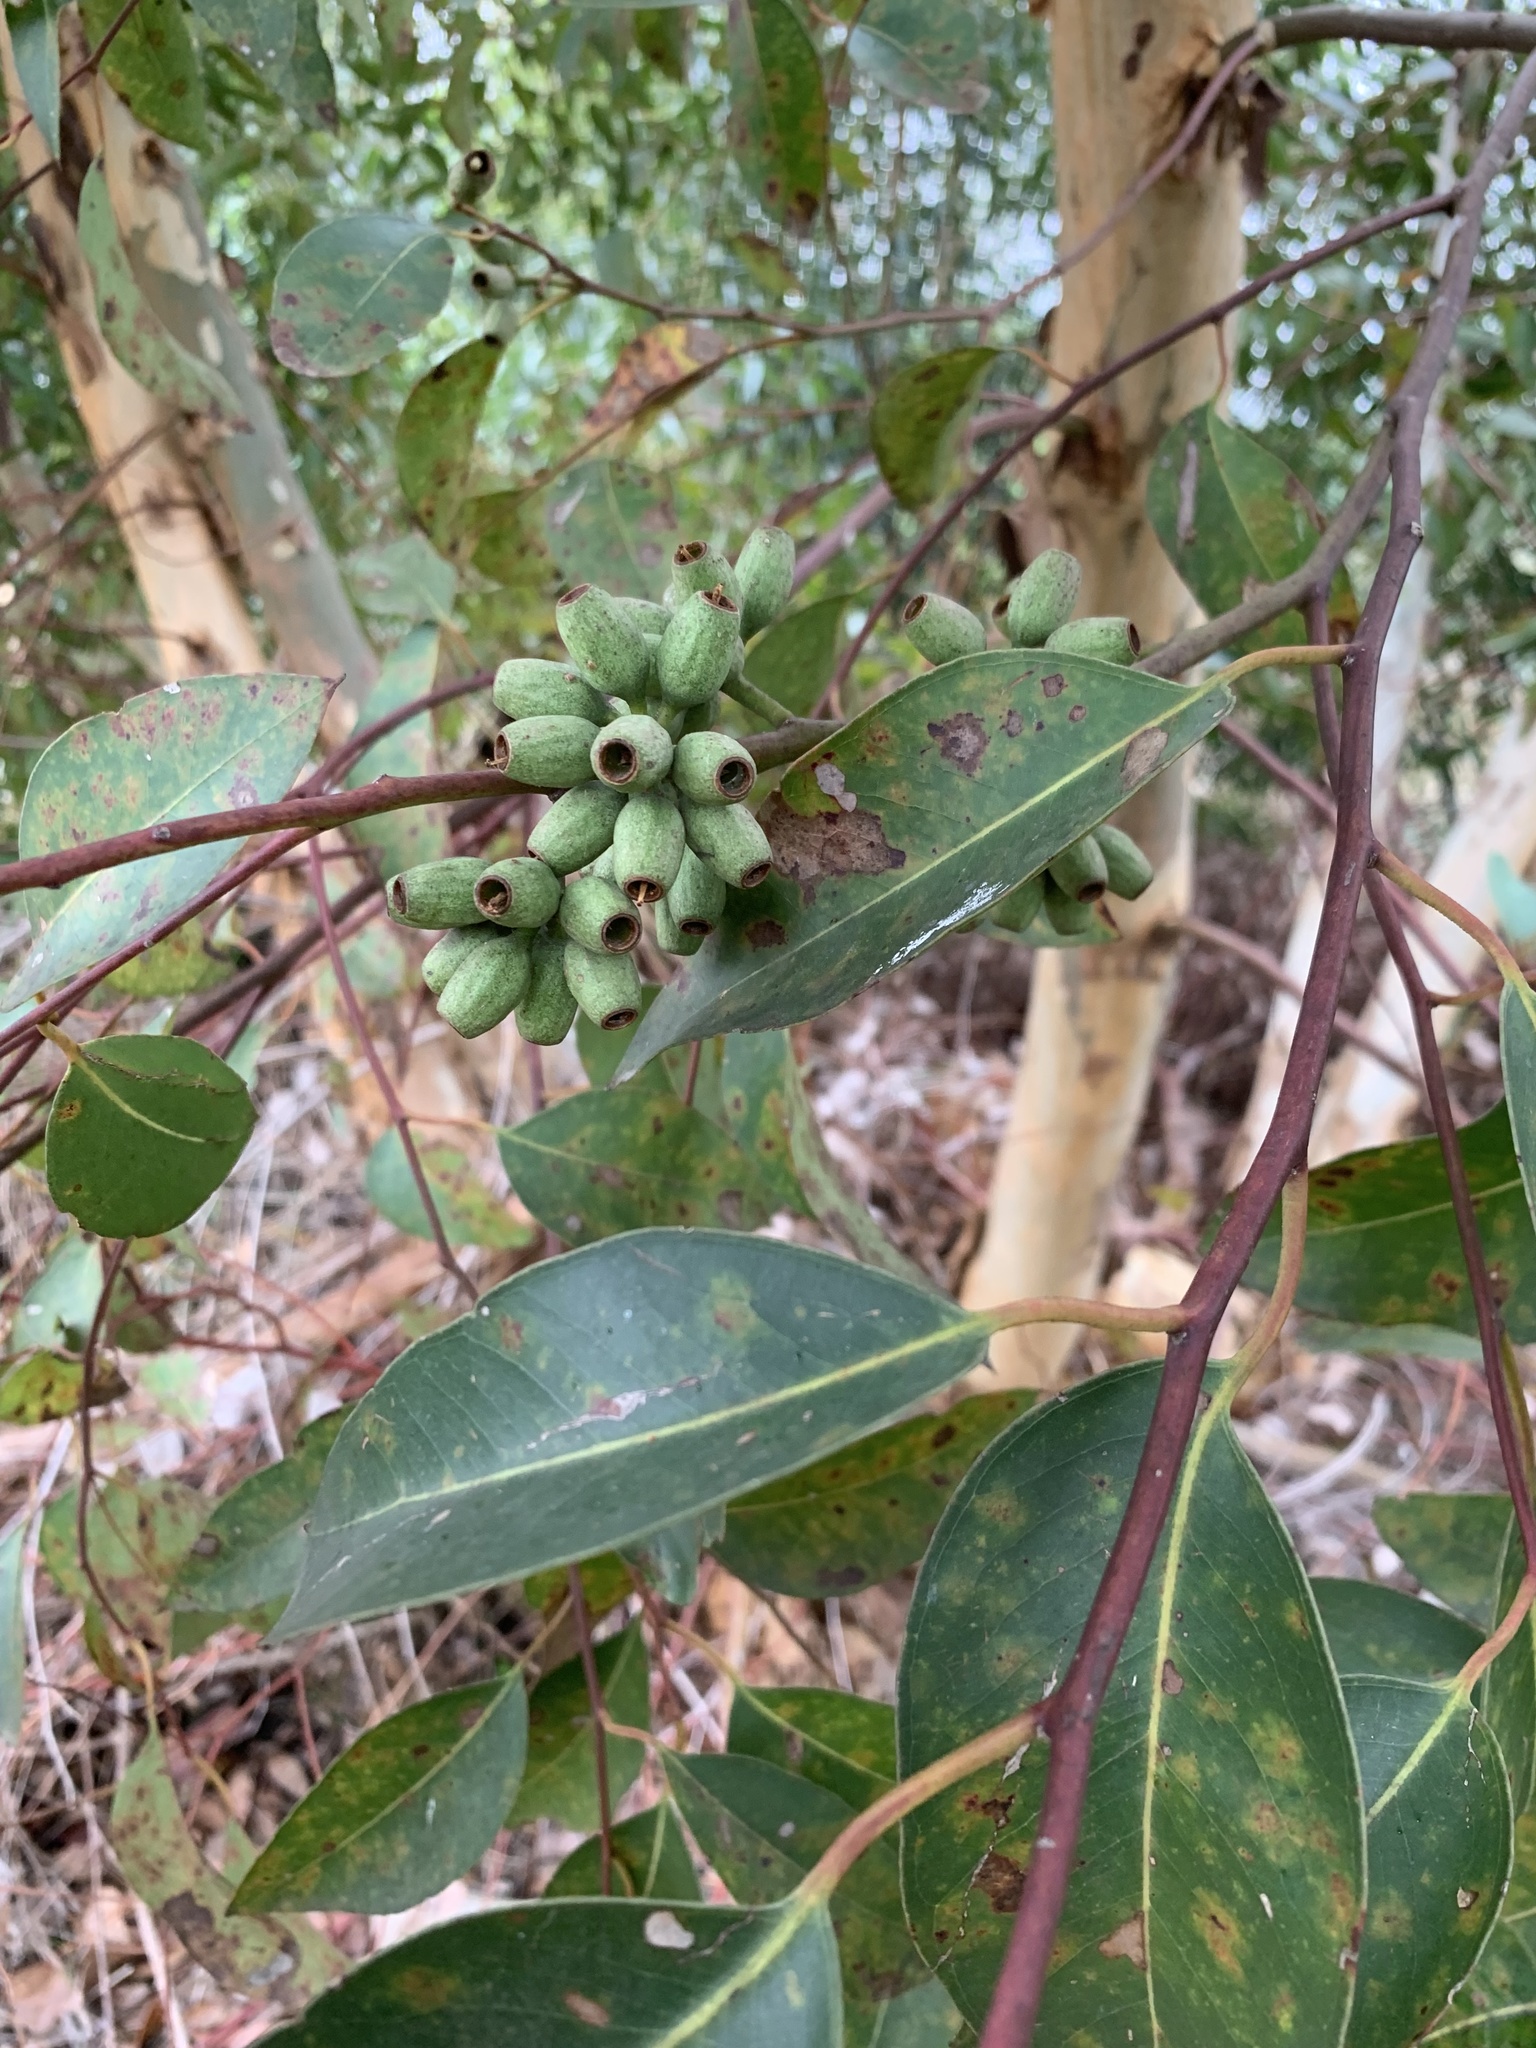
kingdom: Plantae
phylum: Tracheophyta
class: Magnoliopsida
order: Myrtales
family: Myrtaceae
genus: Eucalyptus
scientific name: Eucalyptus cladocalyx
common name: Sugargum
